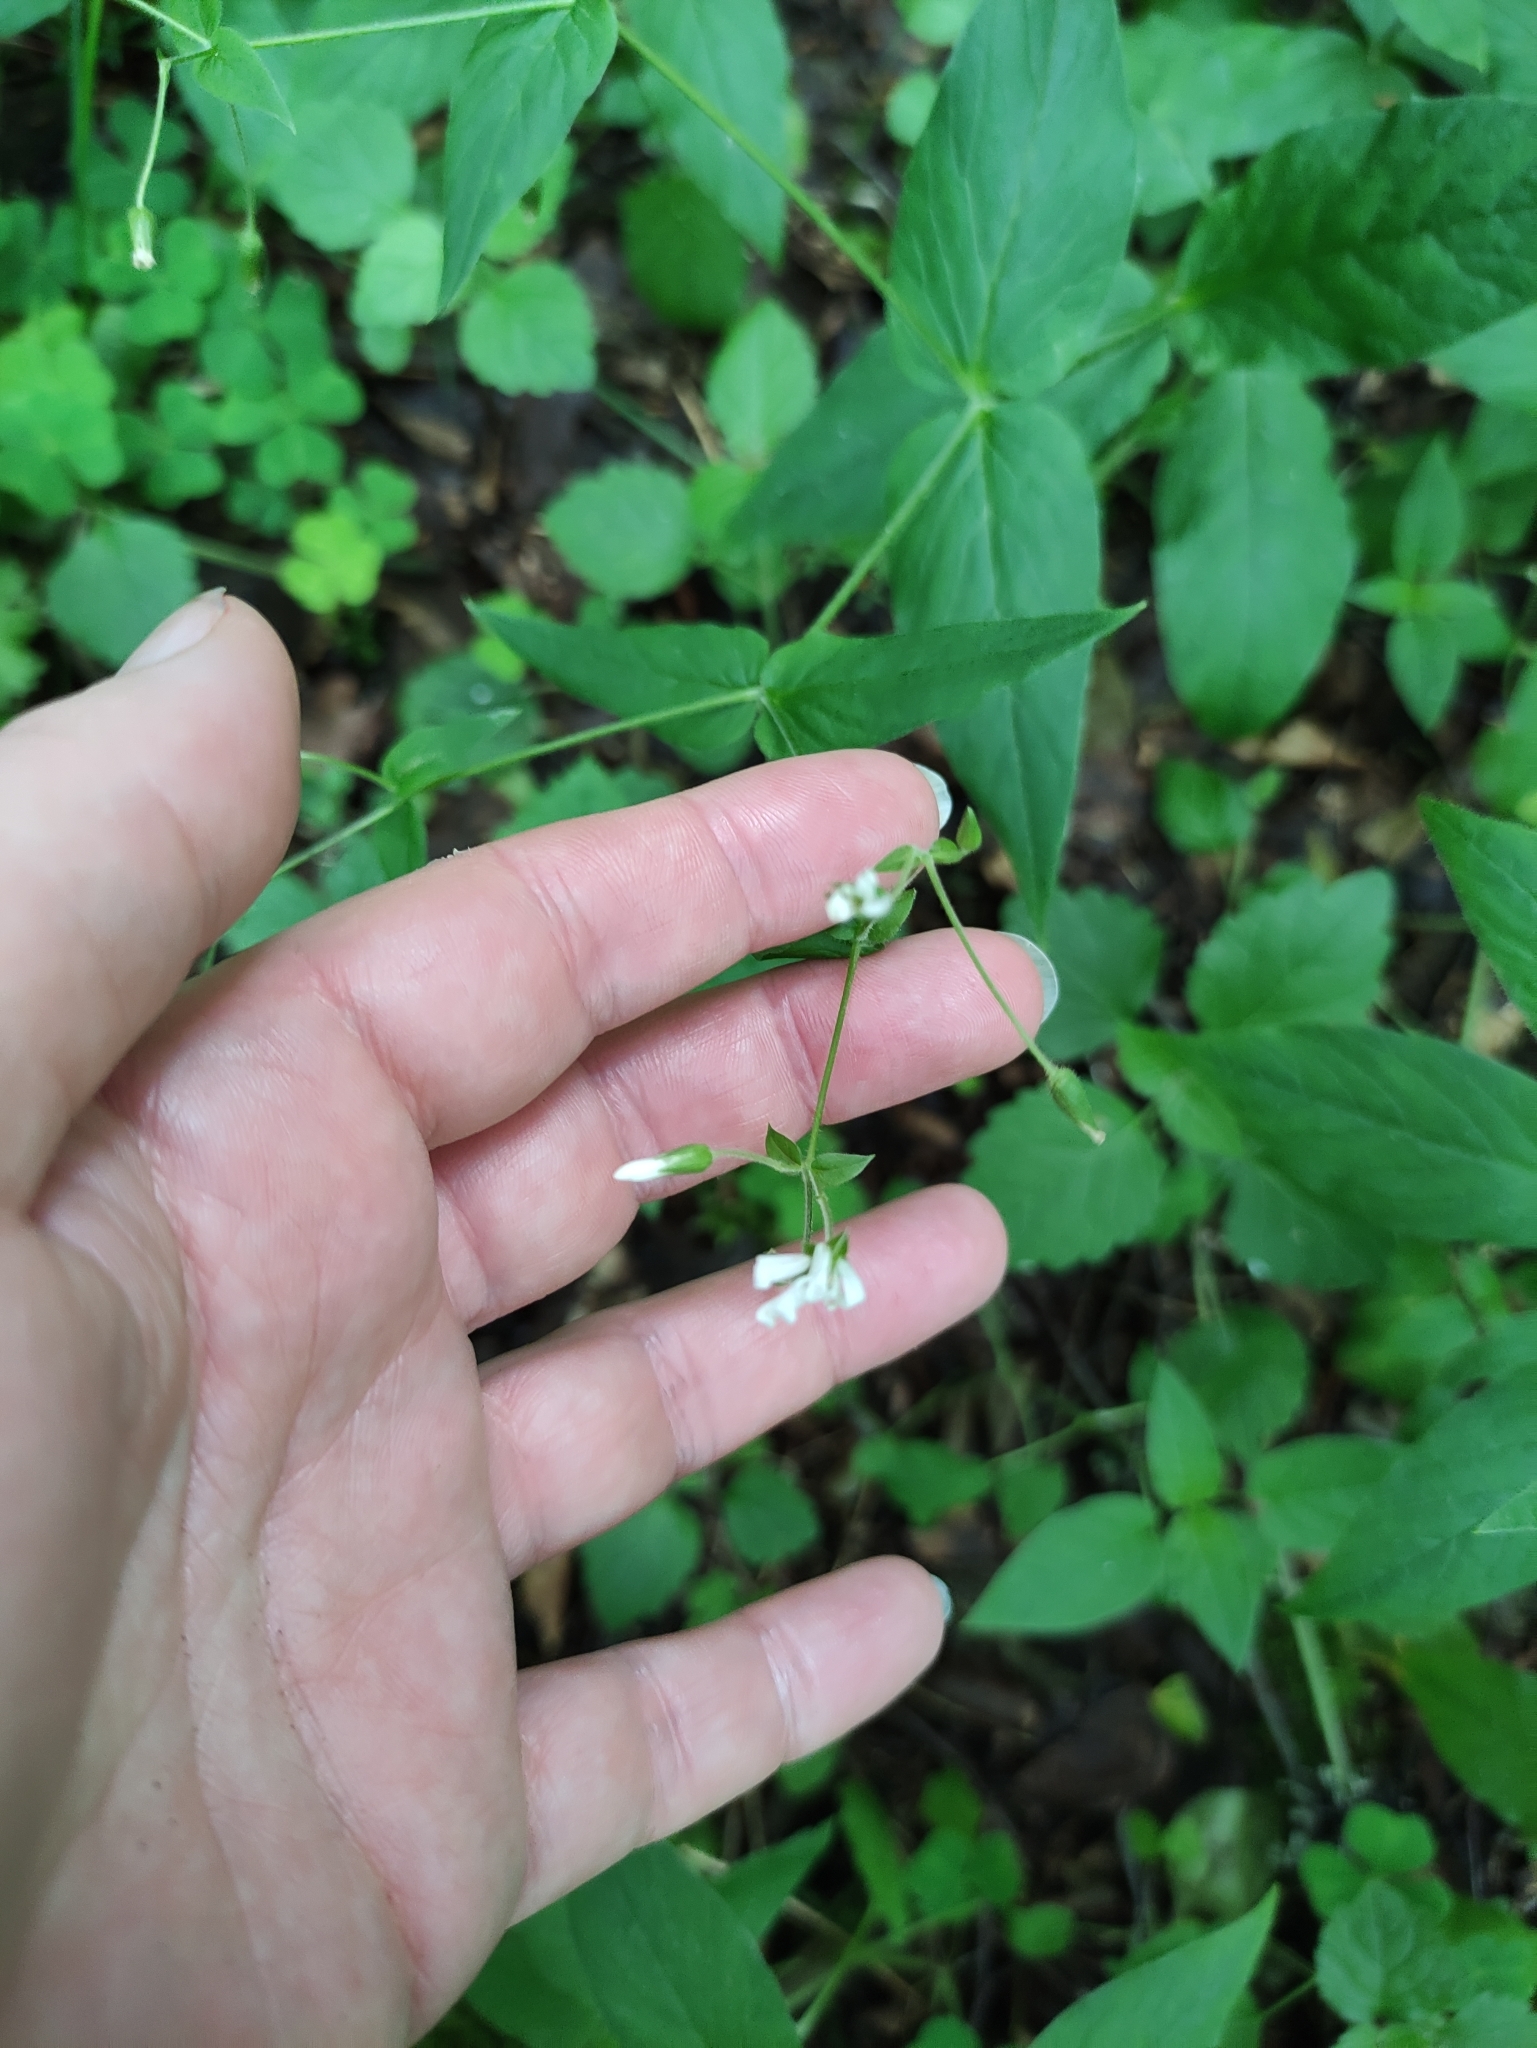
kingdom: Plantae
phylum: Tracheophyta
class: Magnoliopsida
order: Caryophyllales
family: Caryophyllaceae
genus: Stellaria
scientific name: Stellaria nemorum
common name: Wood stitchwort
